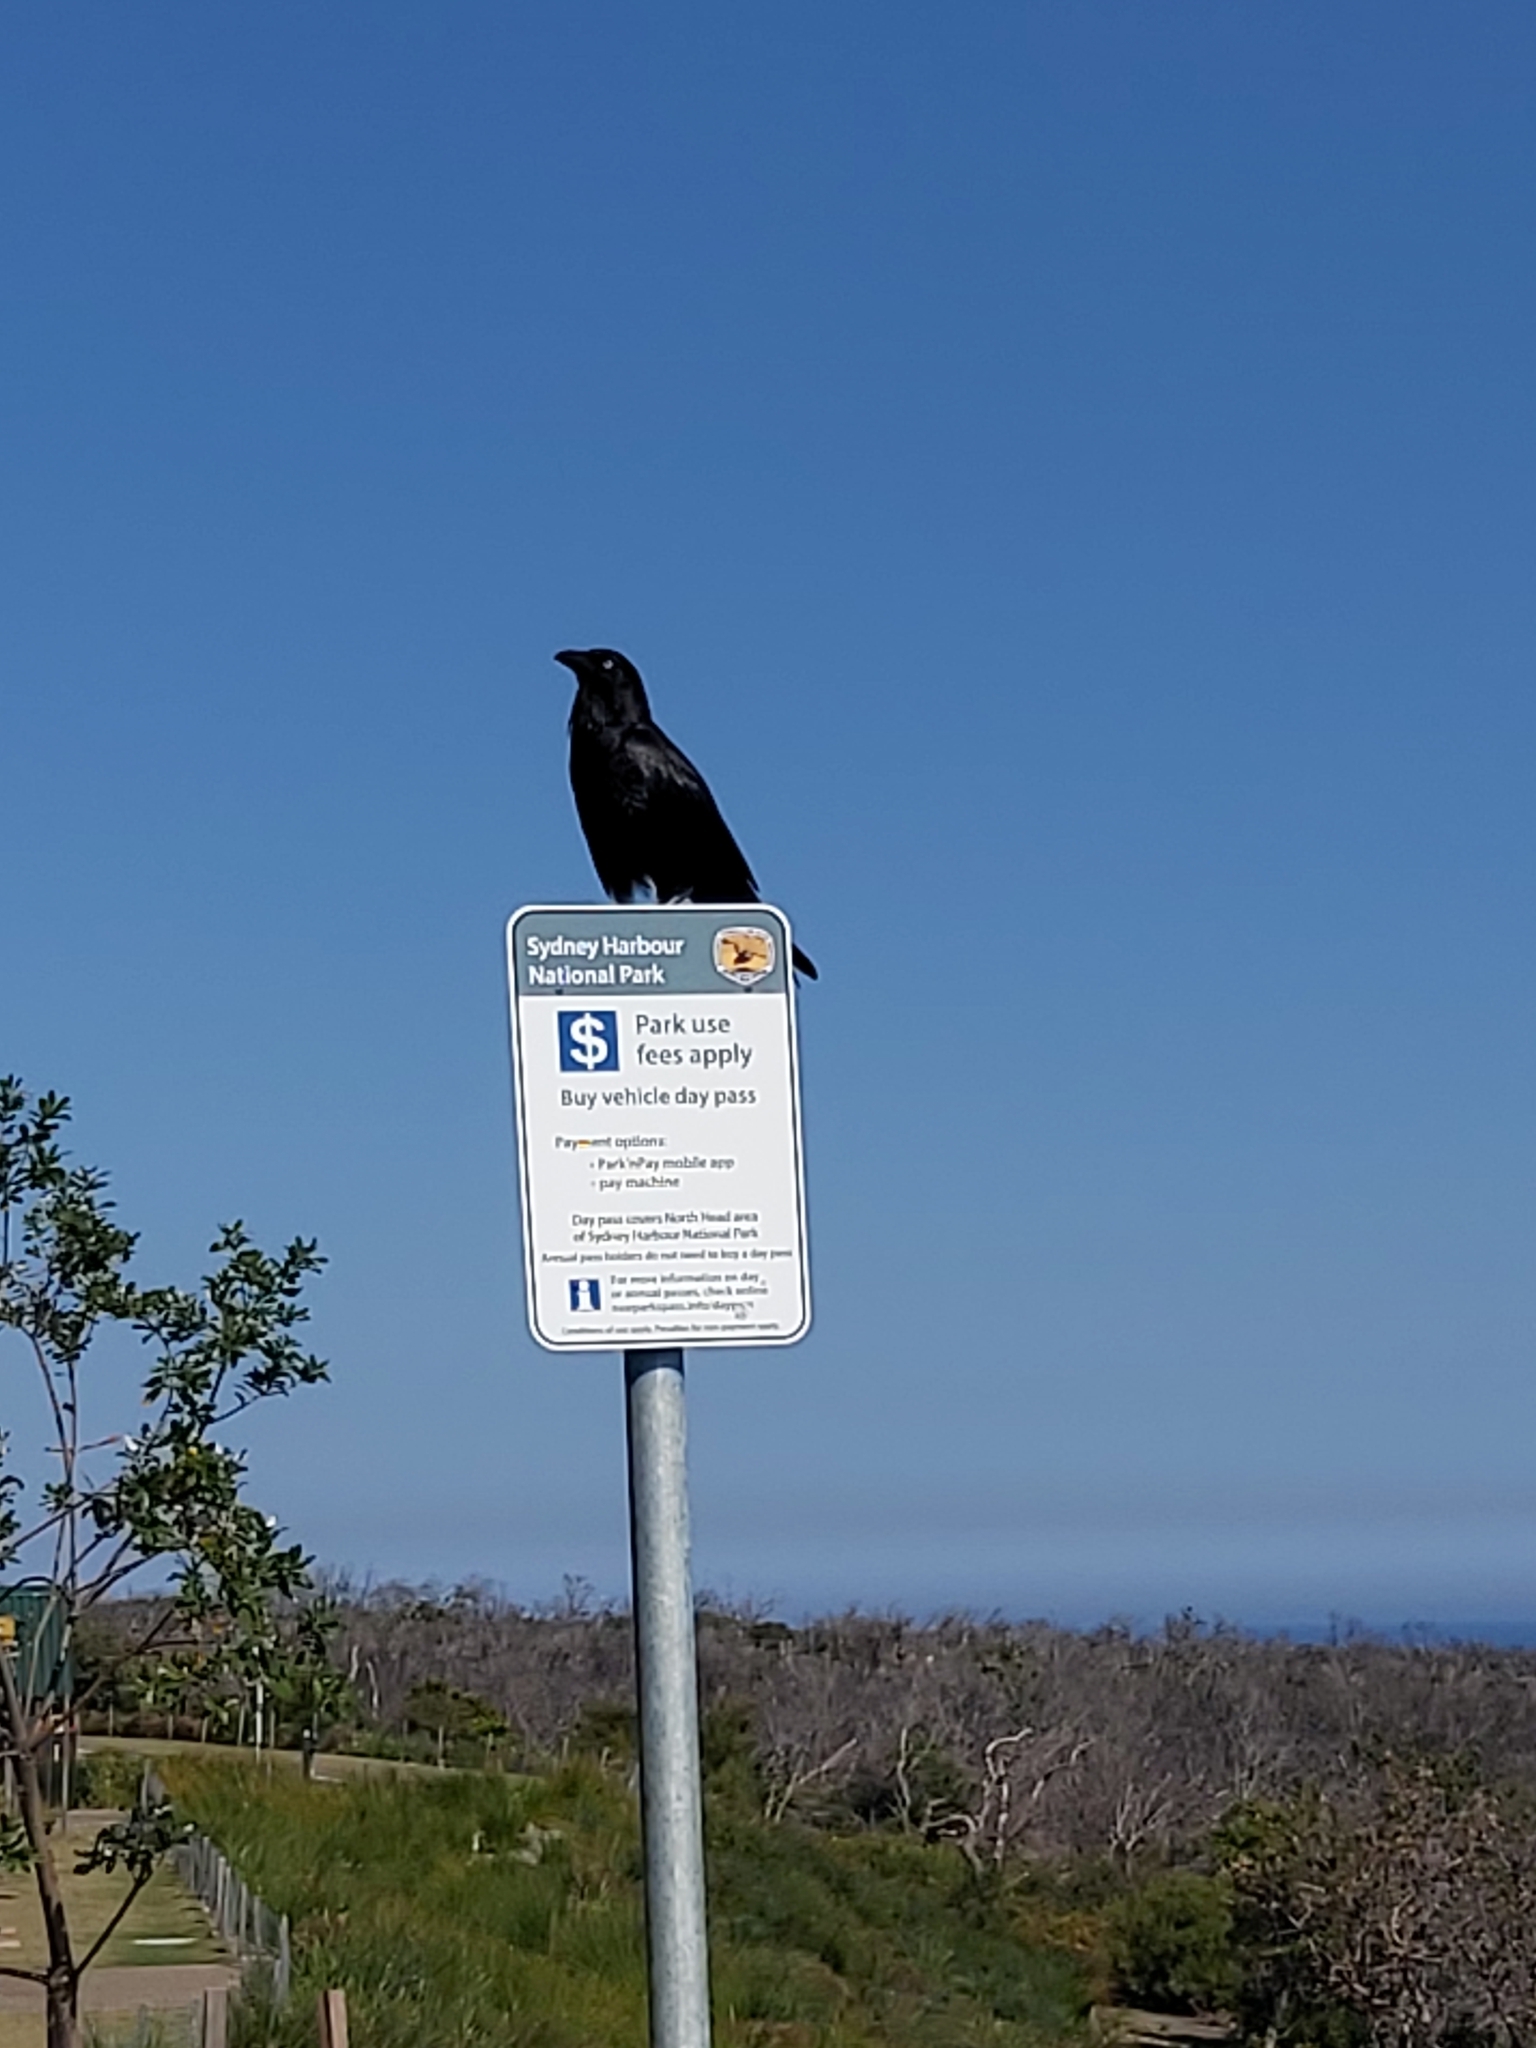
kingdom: Animalia
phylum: Chordata
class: Aves
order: Passeriformes
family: Corvidae
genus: Corvus
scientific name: Corvus coronoides
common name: Australian raven
